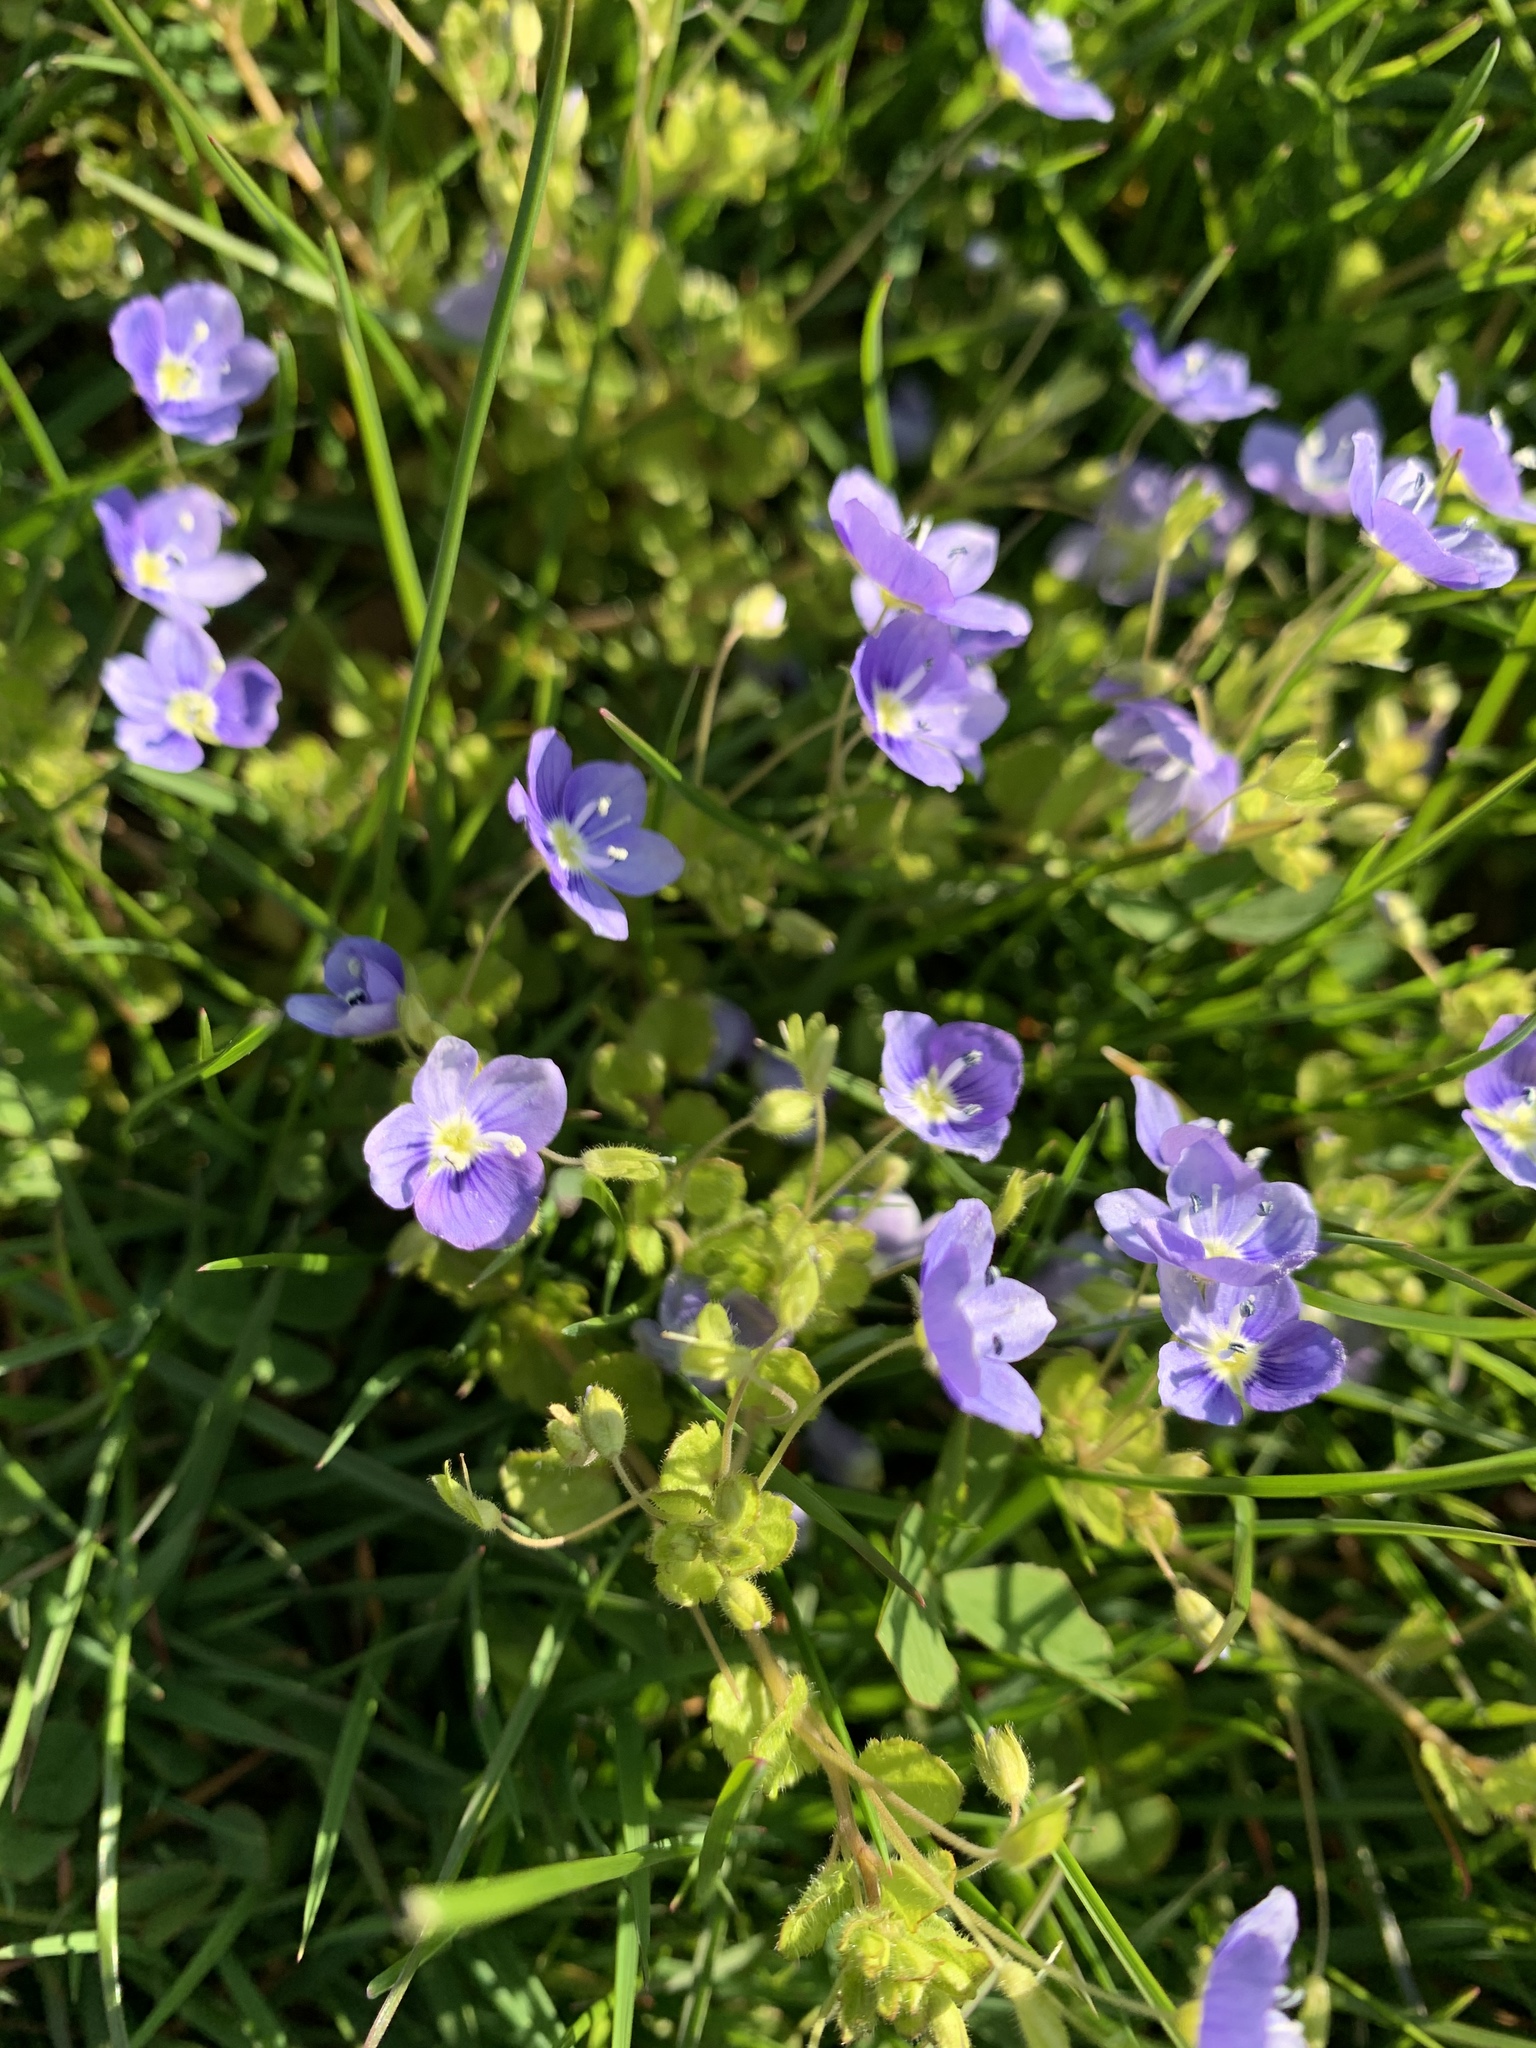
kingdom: Plantae
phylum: Tracheophyta
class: Magnoliopsida
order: Lamiales
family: Plantaginaceae
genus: Veronica
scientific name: Veronica filiformis
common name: Slender speedwell
